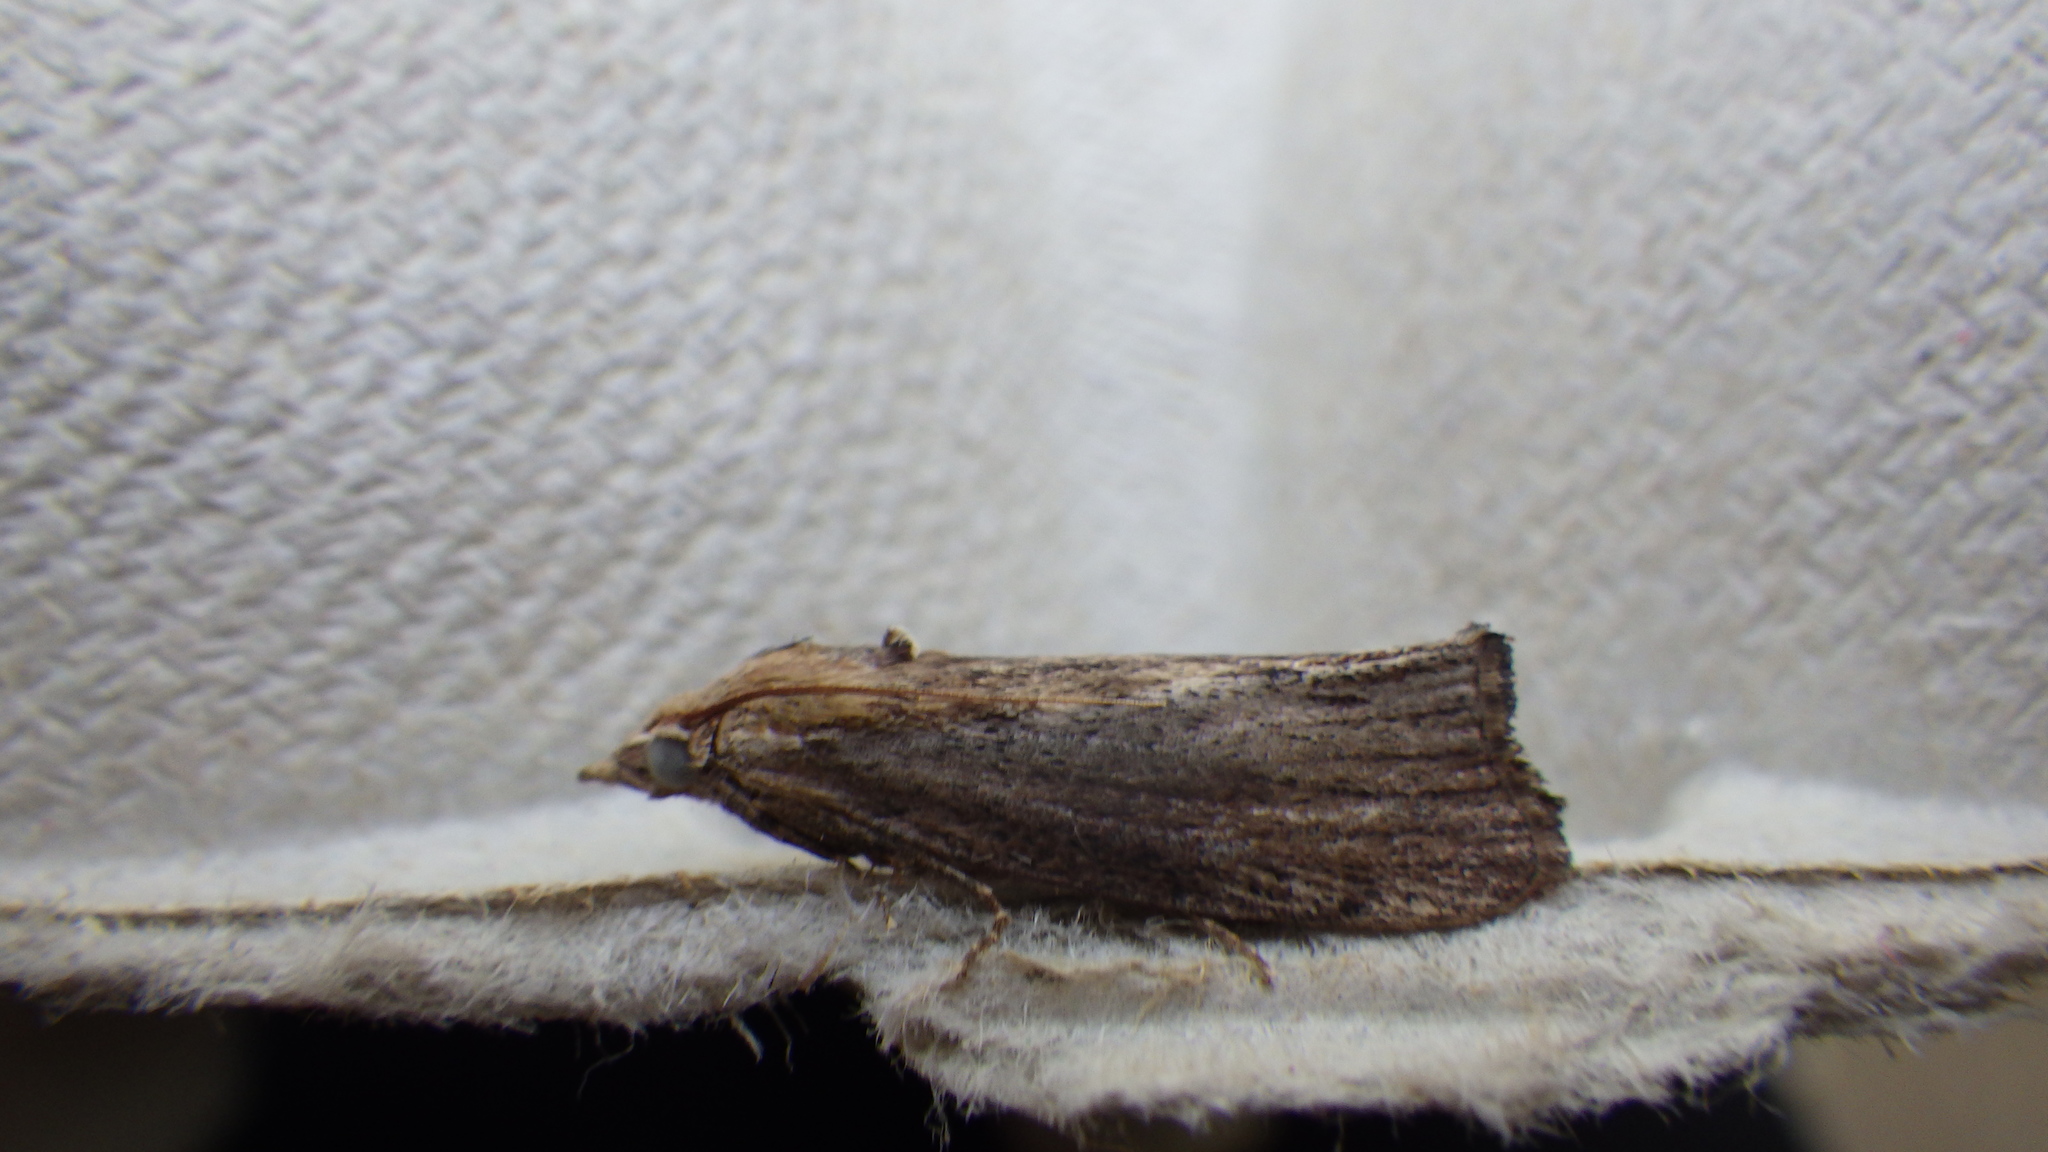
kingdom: Animalia
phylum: Arthropoda
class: Insecta
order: Lepidoptera
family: Pyralidae
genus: Galleria
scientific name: Galleria mellonella
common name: Greater wax moth
